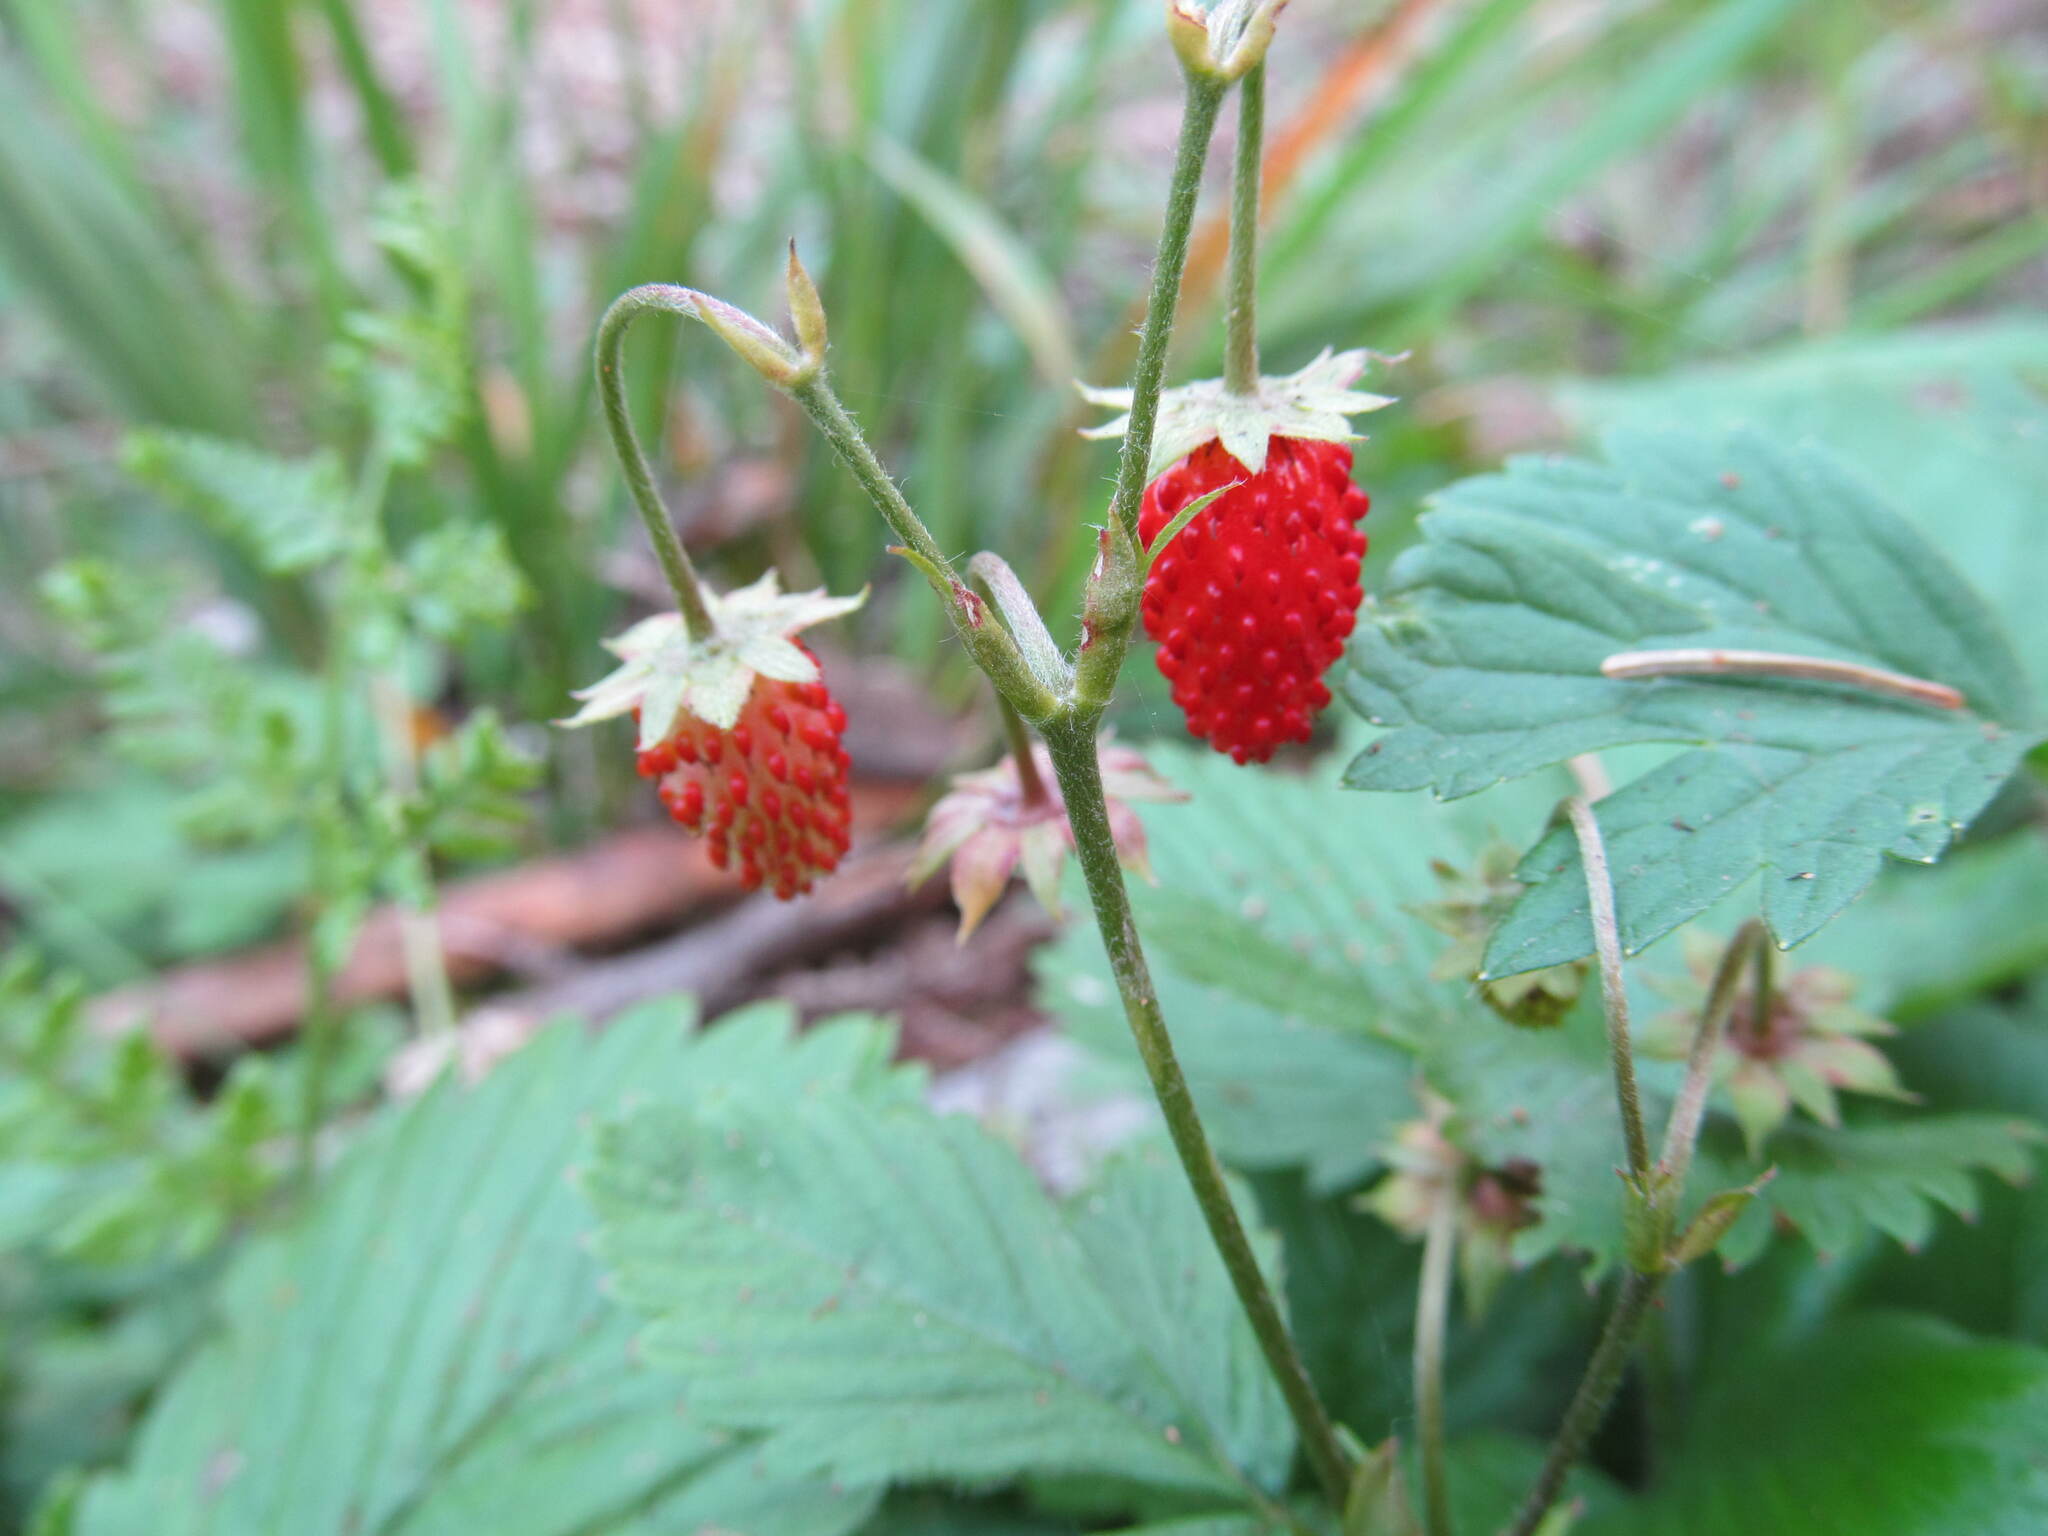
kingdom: Plantae
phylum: Tracheophyta
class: Magnoliopsida
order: Rosales
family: Rosaceae
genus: Fragaria
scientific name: Fragaria vesca
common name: Wild strawberry
